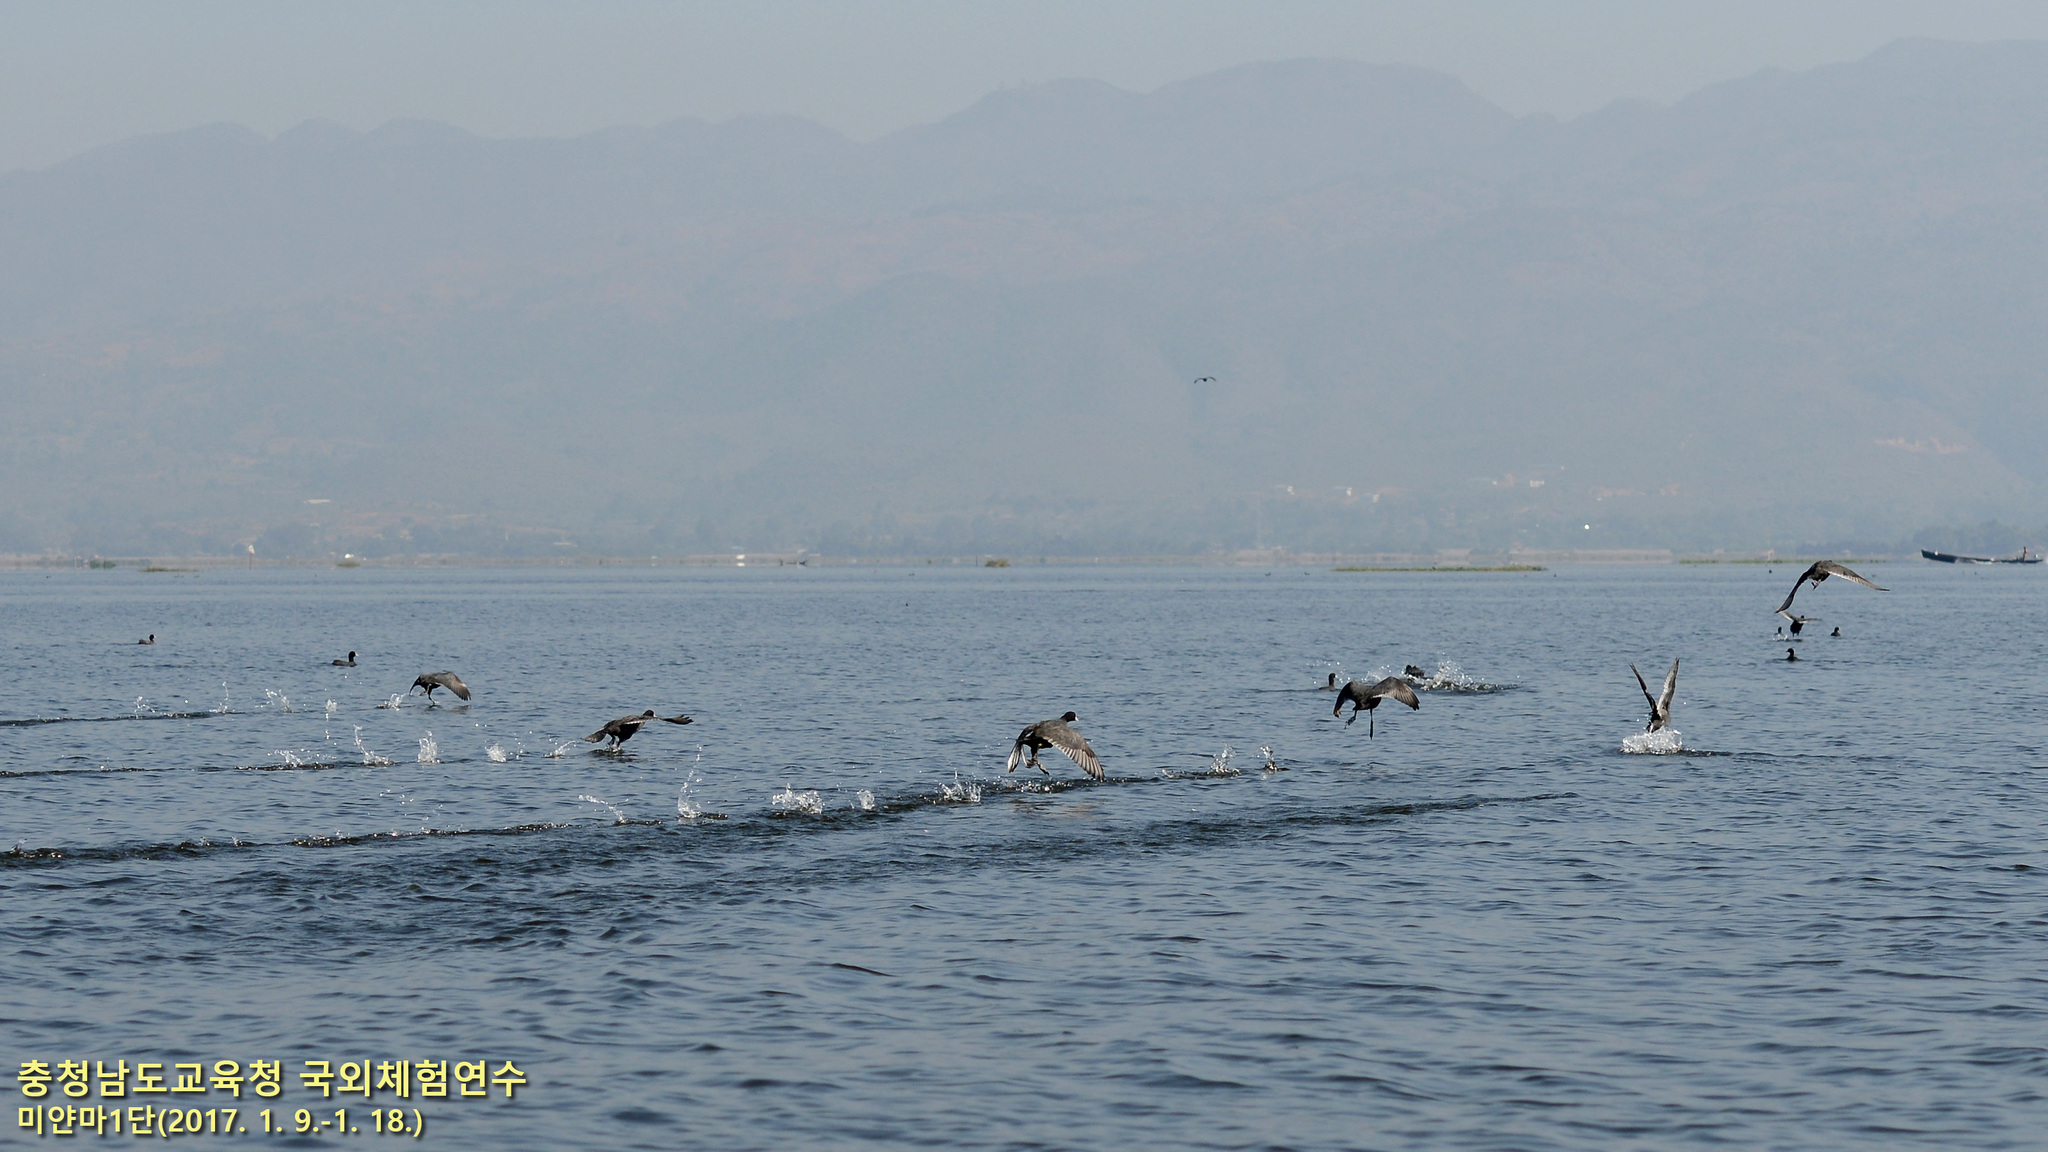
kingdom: Animalia
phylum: Chordata
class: Aves
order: Gruiformes
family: Rallidae
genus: Fulica
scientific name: Fulica atra
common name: Eurasian coot
